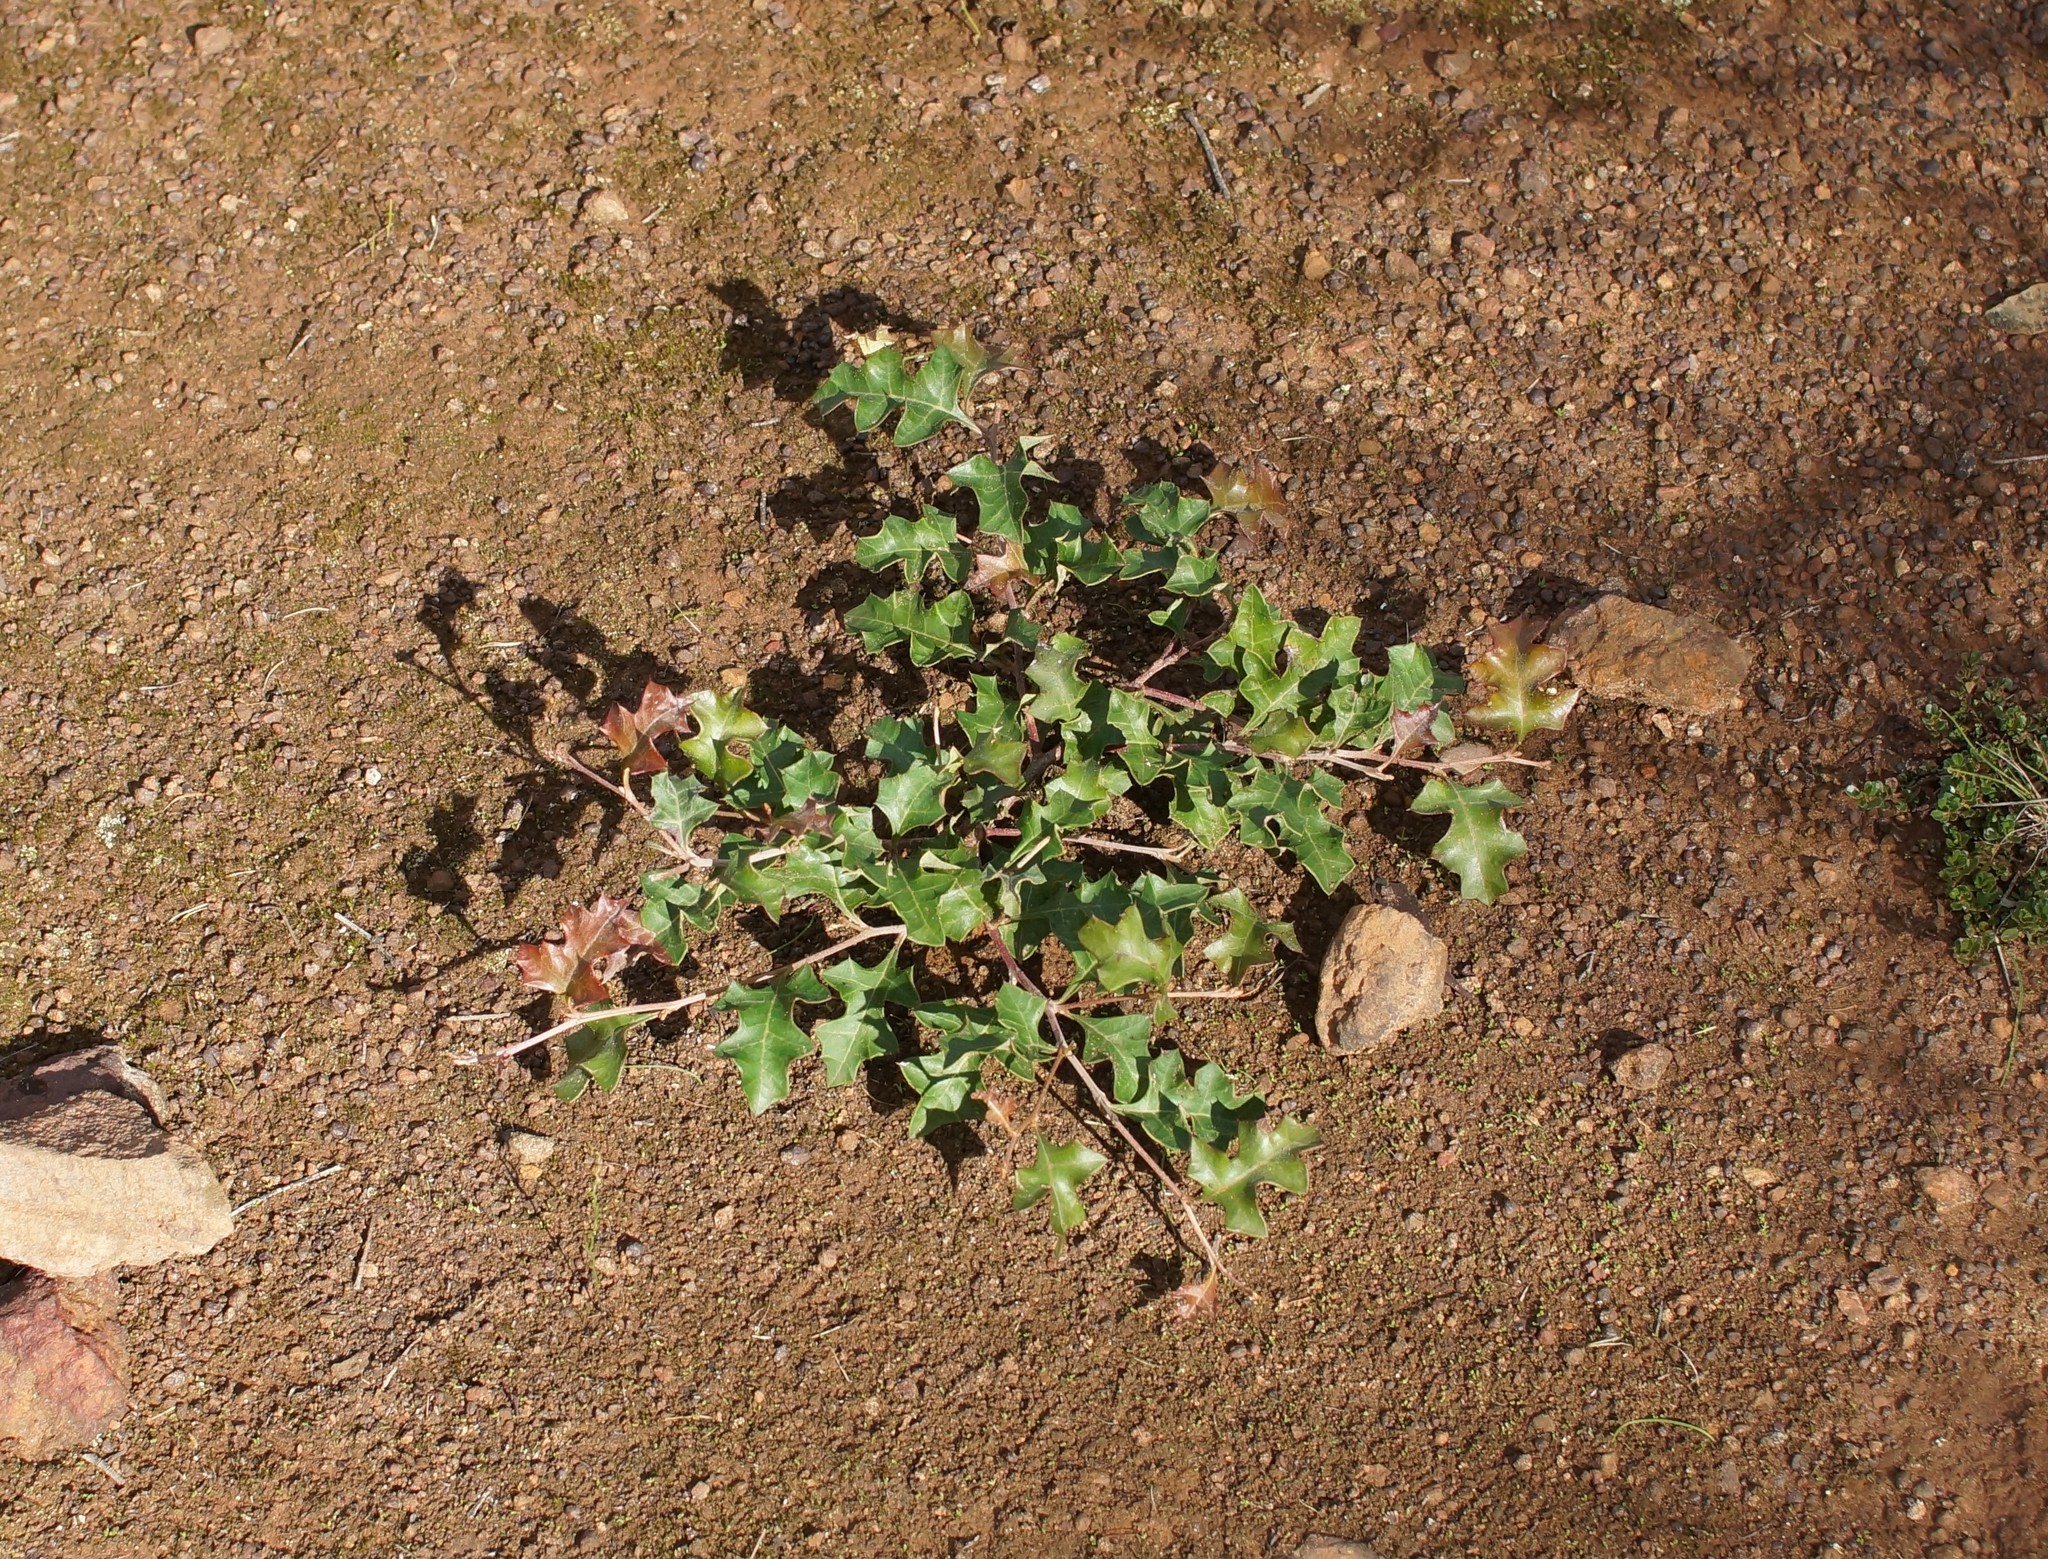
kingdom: Plantae
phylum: Tracheophyta
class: Magnoliopsida
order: Proteales
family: Proteaceae
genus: Grevillea
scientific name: Grevillea steiglitziana
